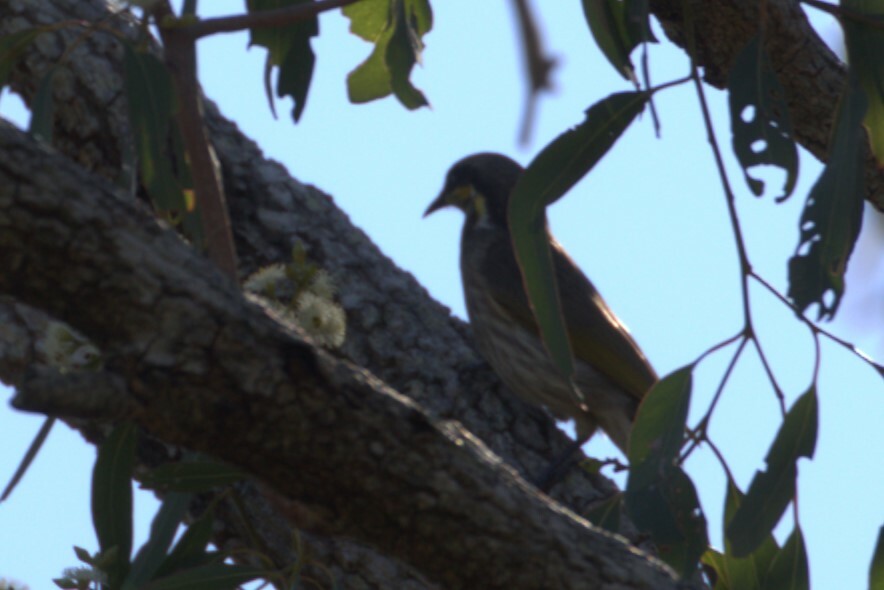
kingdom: Animalia
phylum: Chordata
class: Aves
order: Passeriformes
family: Meliphagidae
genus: Gavicalis
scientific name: Gavicalis fasciogularis
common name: Mangrove honeyeater
